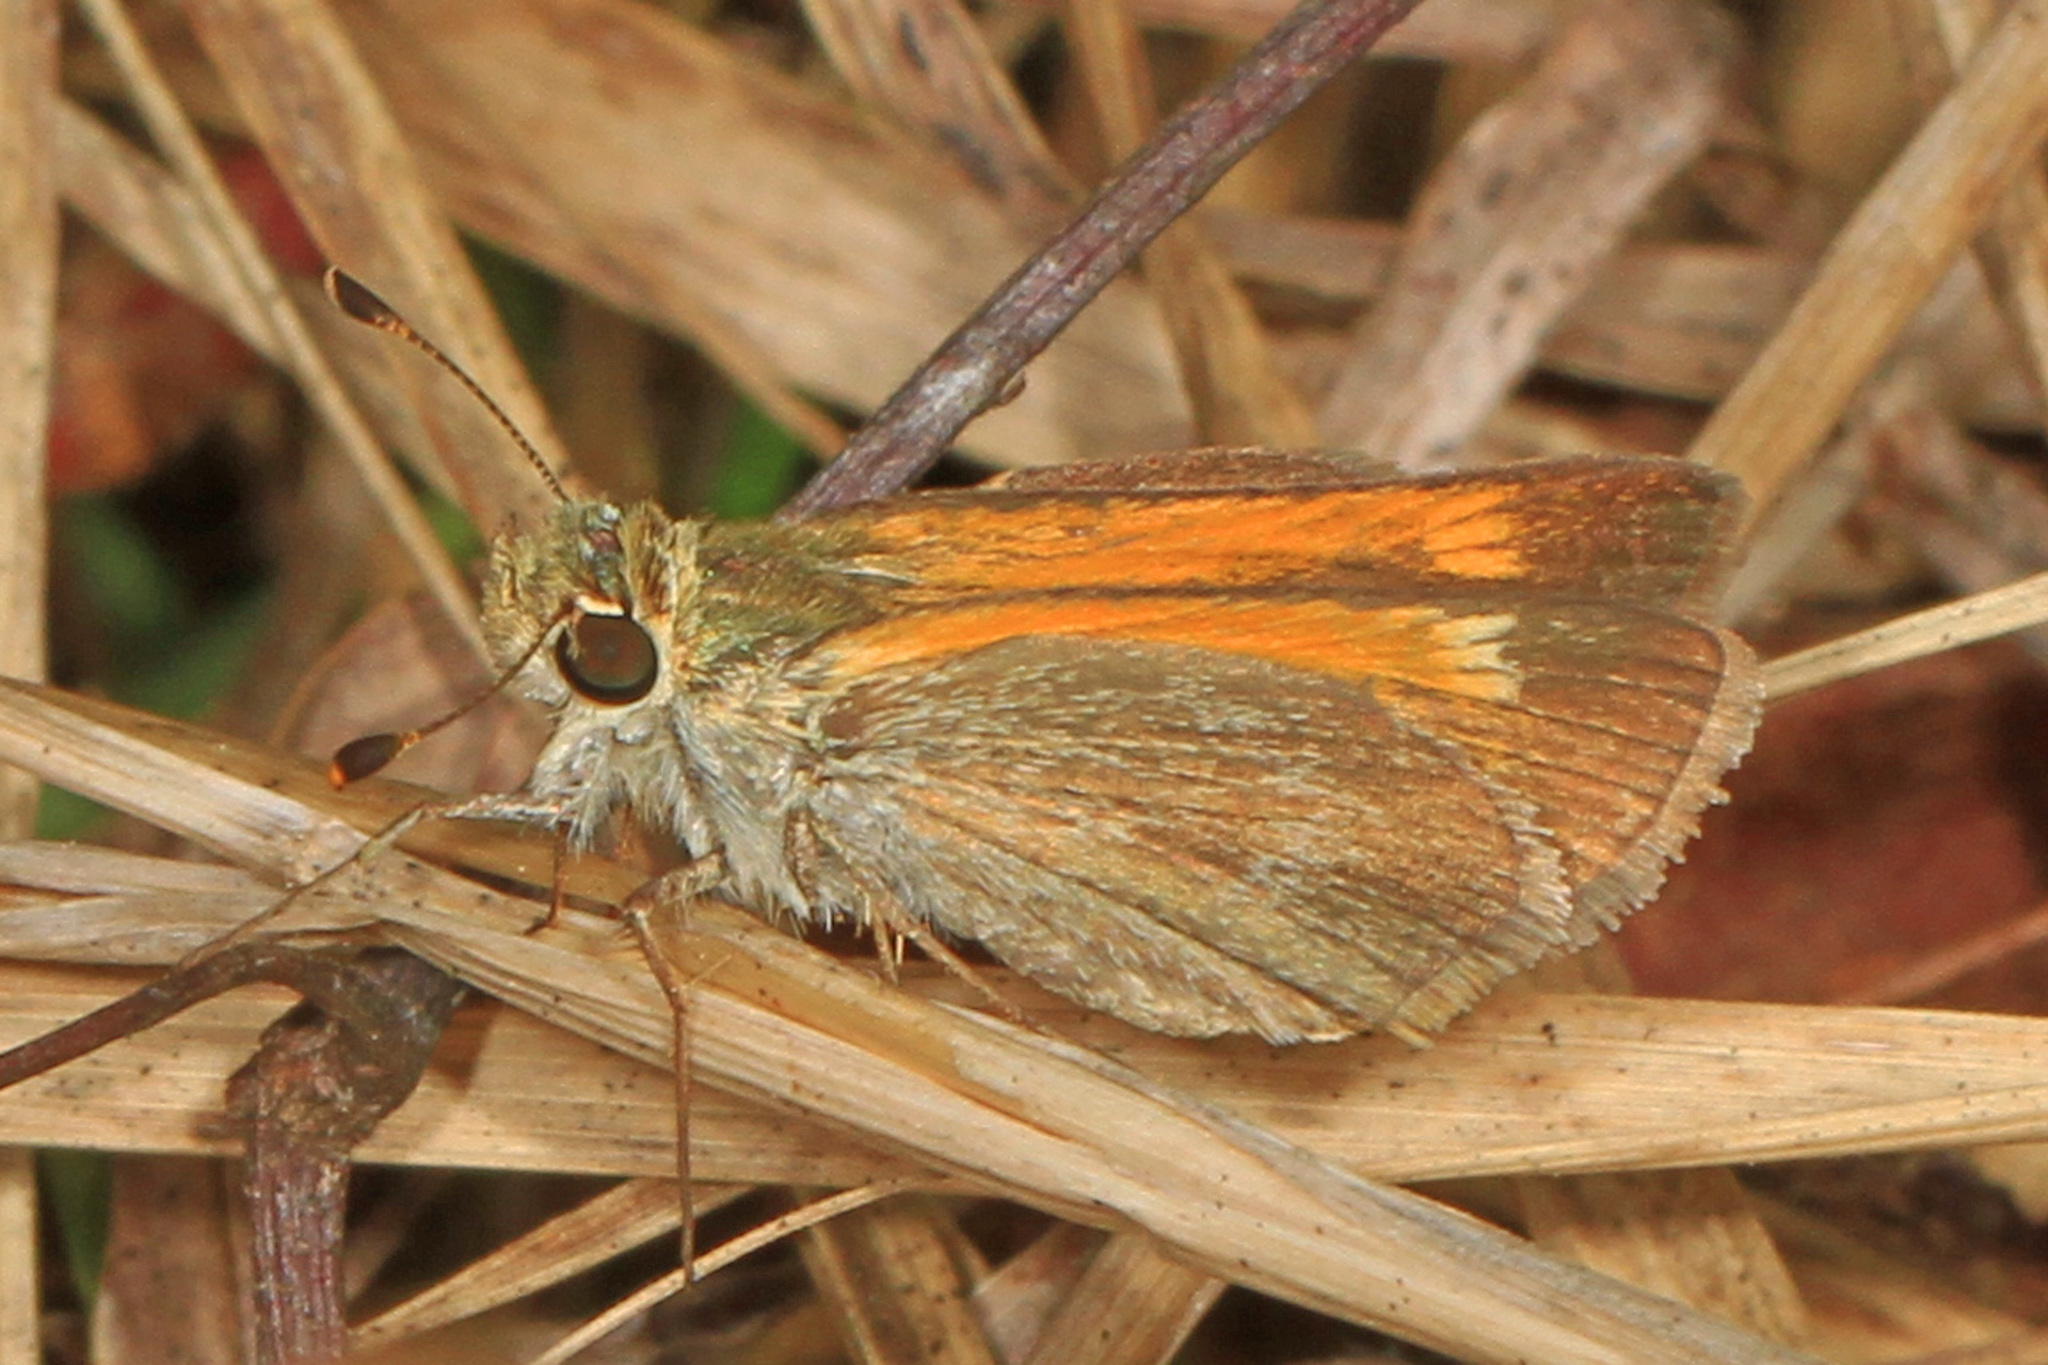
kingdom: Animalia
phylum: Arthropoda
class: Insecta
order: Lepidoptera
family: Hesperiidae
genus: Polites
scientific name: Polites baracoa
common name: Baracoa skipper
